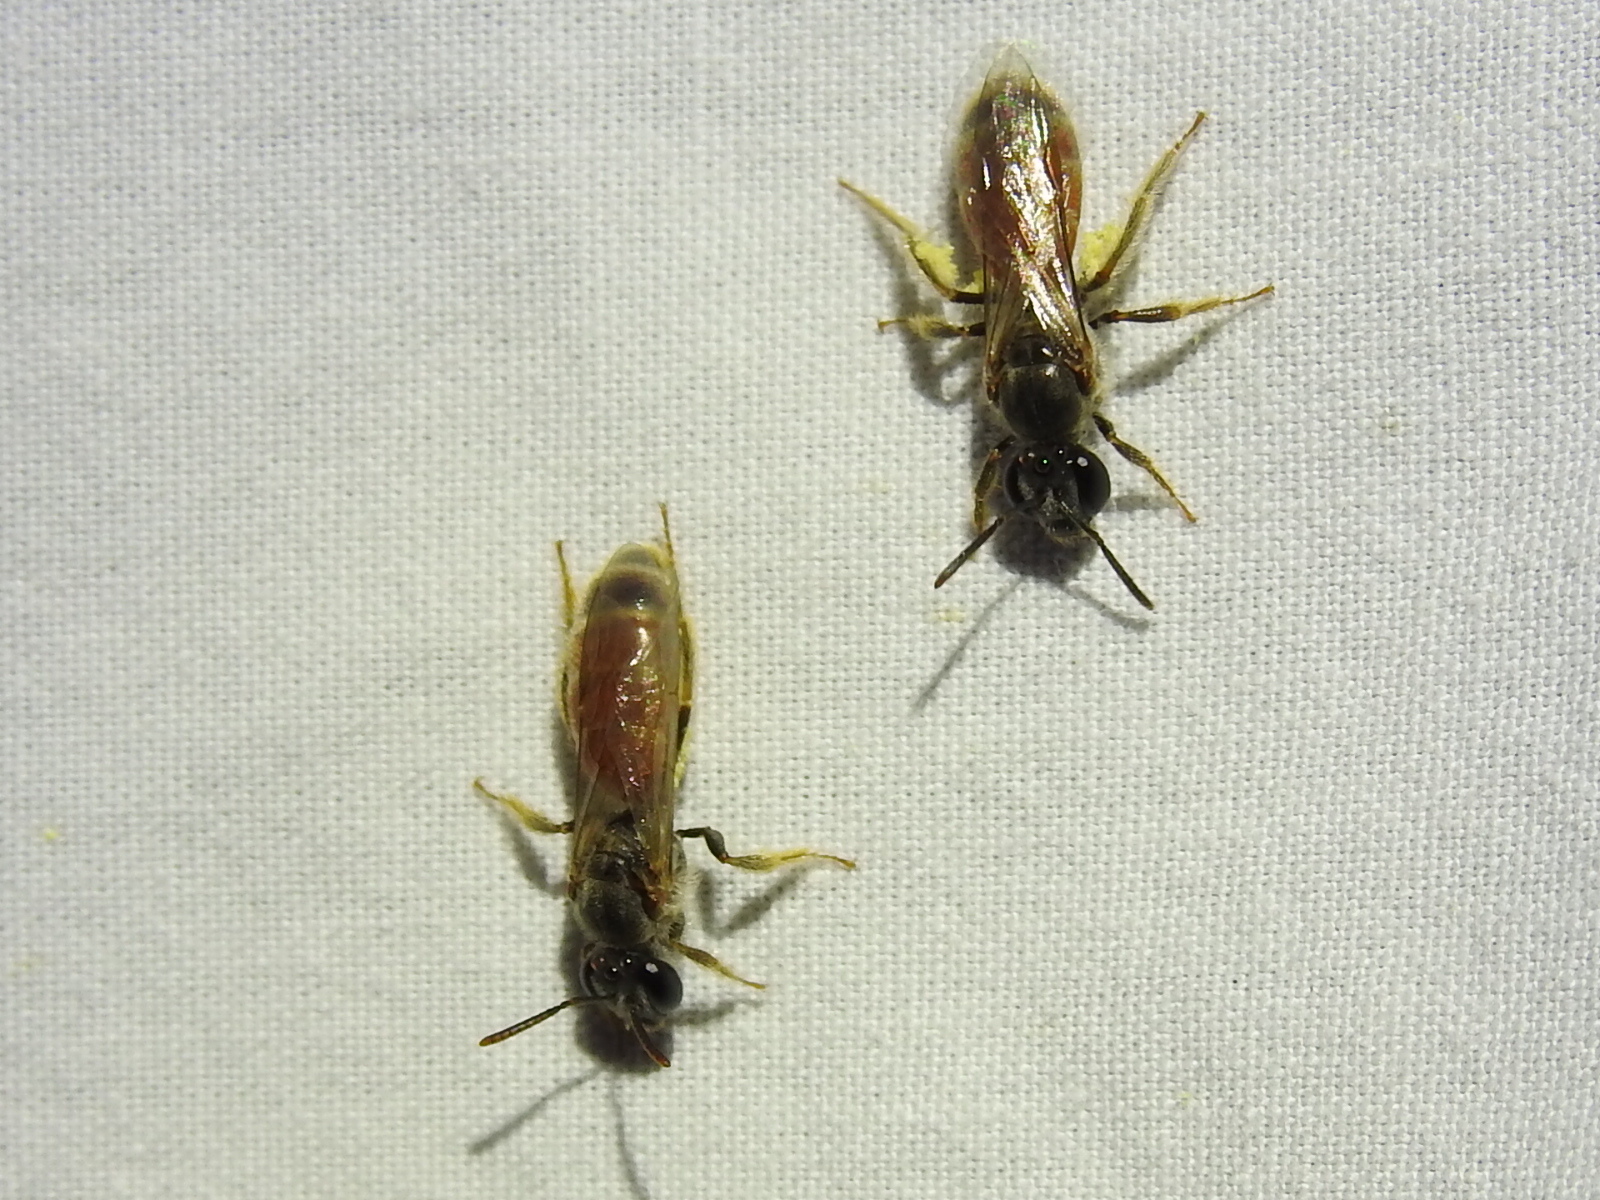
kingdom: Animalia
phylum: Arthropoda
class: Insecta
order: Hymenoptera
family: Halictidae
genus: Lasioglossum
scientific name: Lasioglossum texanum
